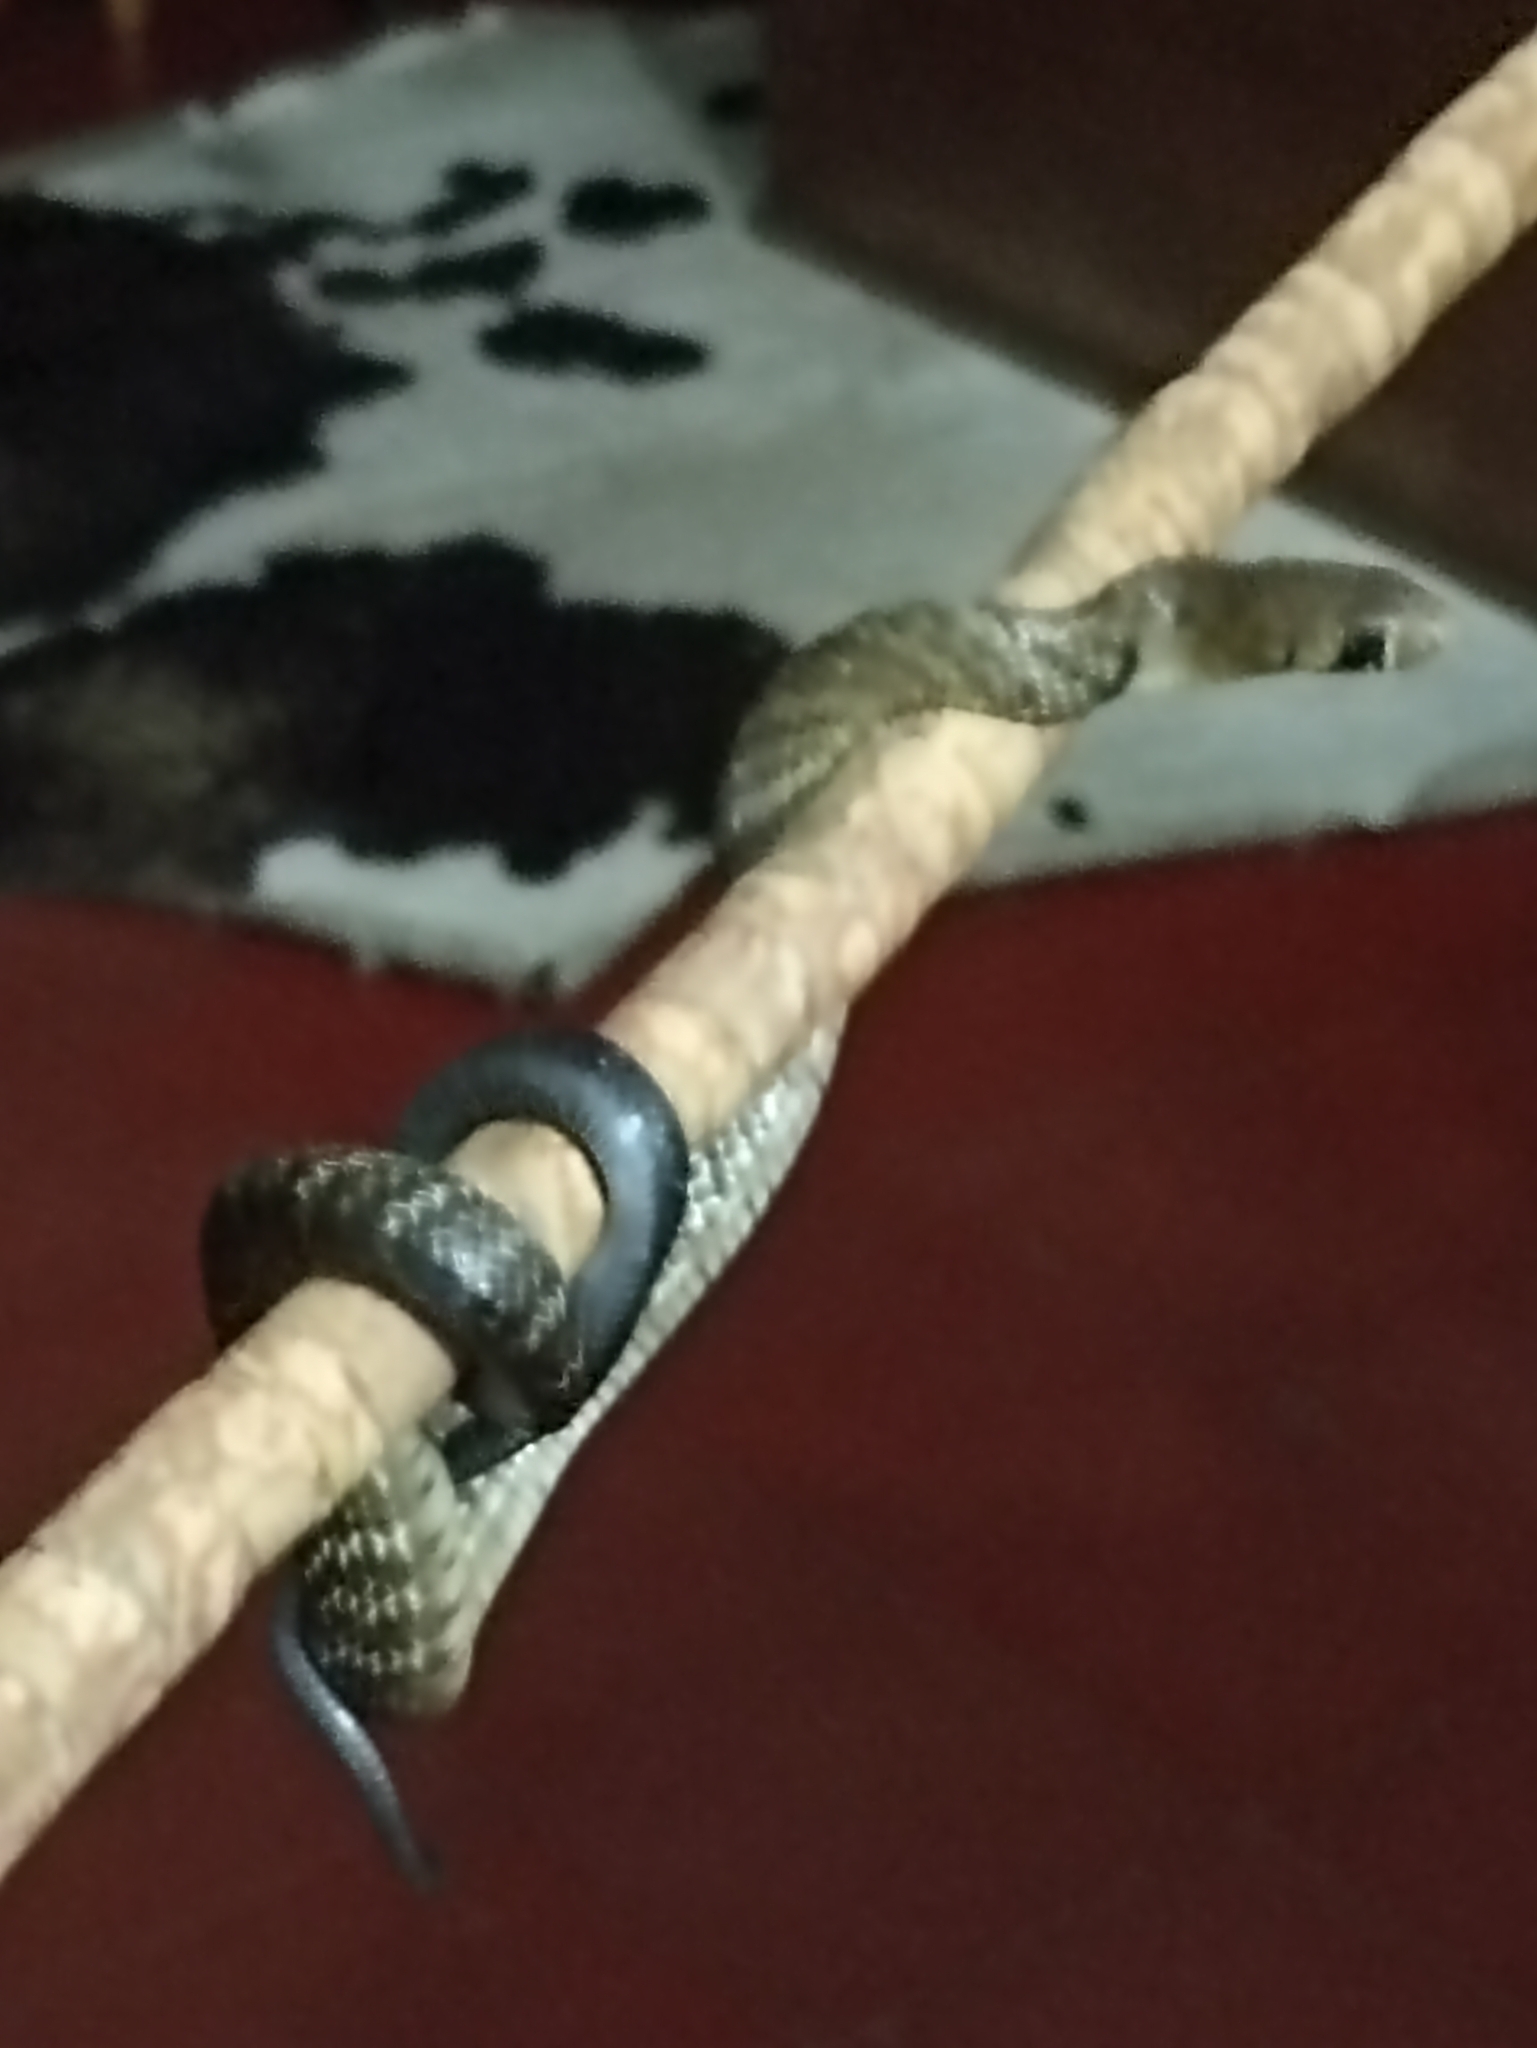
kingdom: Animalia
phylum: Chordata
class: Squamata
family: Colubridae
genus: Drymarchon
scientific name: Drymarchon melanurus
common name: Central american indigo snake
